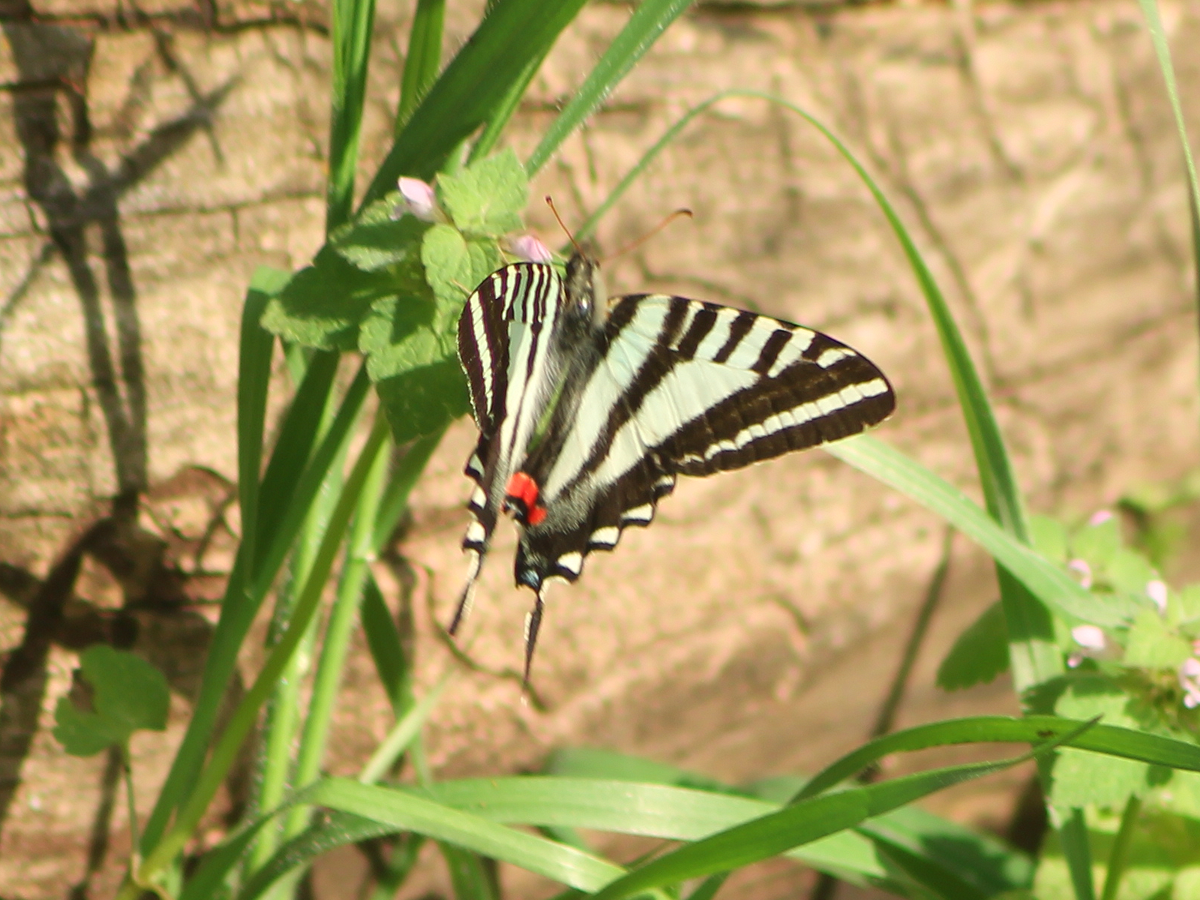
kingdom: Animalia
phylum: Arthropoda
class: Insecta
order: Lepidoptera
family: Papilionidae
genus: Protographium
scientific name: Protographium marcellus
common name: Zebra swallowtail
